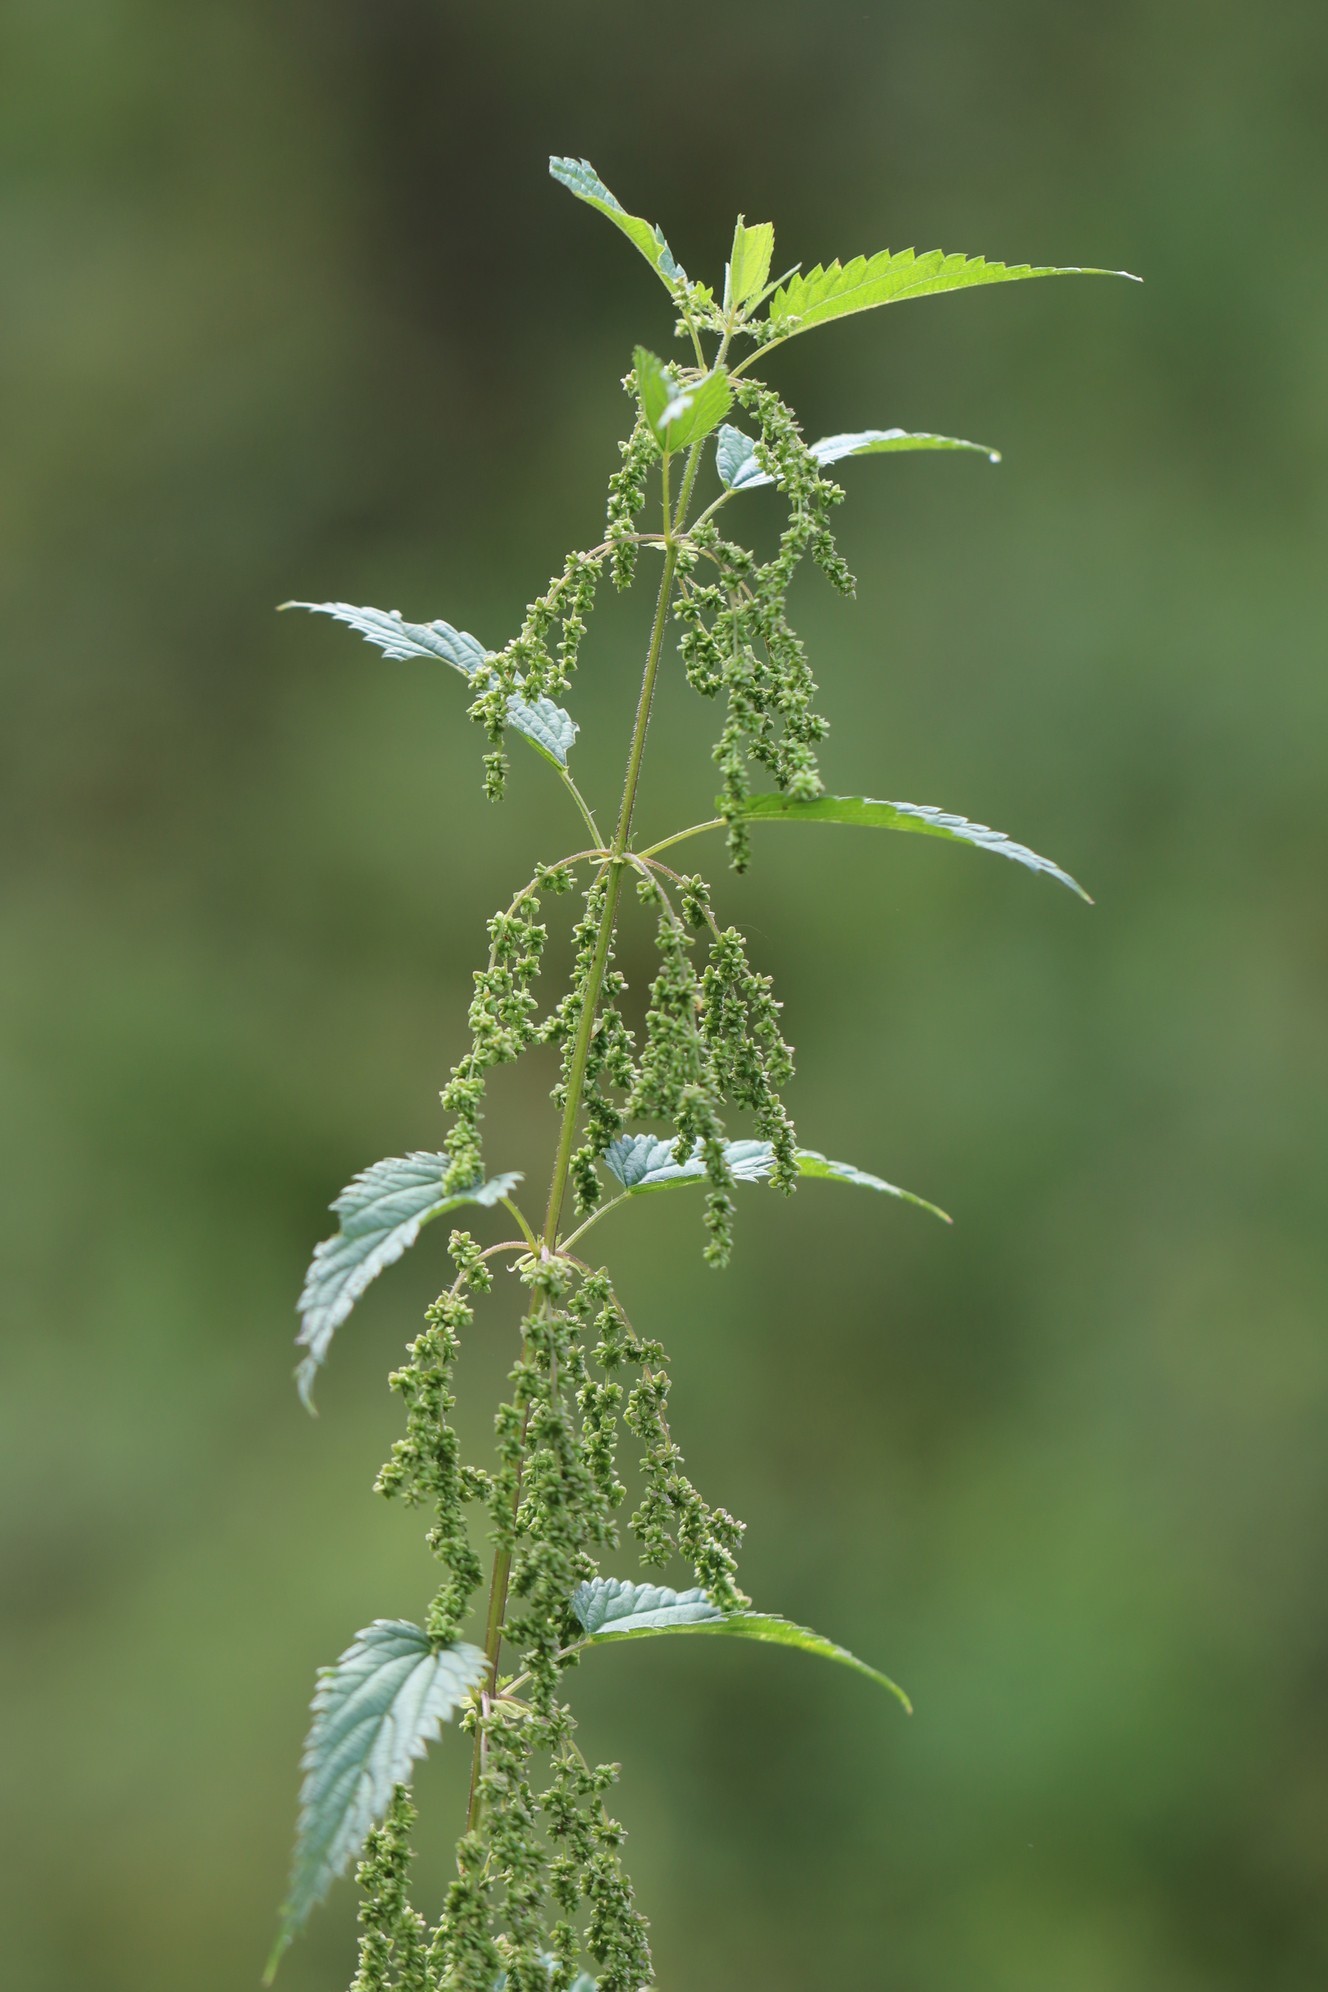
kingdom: Plantae
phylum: Tracheophyta
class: Magnoliopsida
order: Rosales
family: Urticaceae
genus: Urtica
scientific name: Urtica dioica
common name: Common nettle
